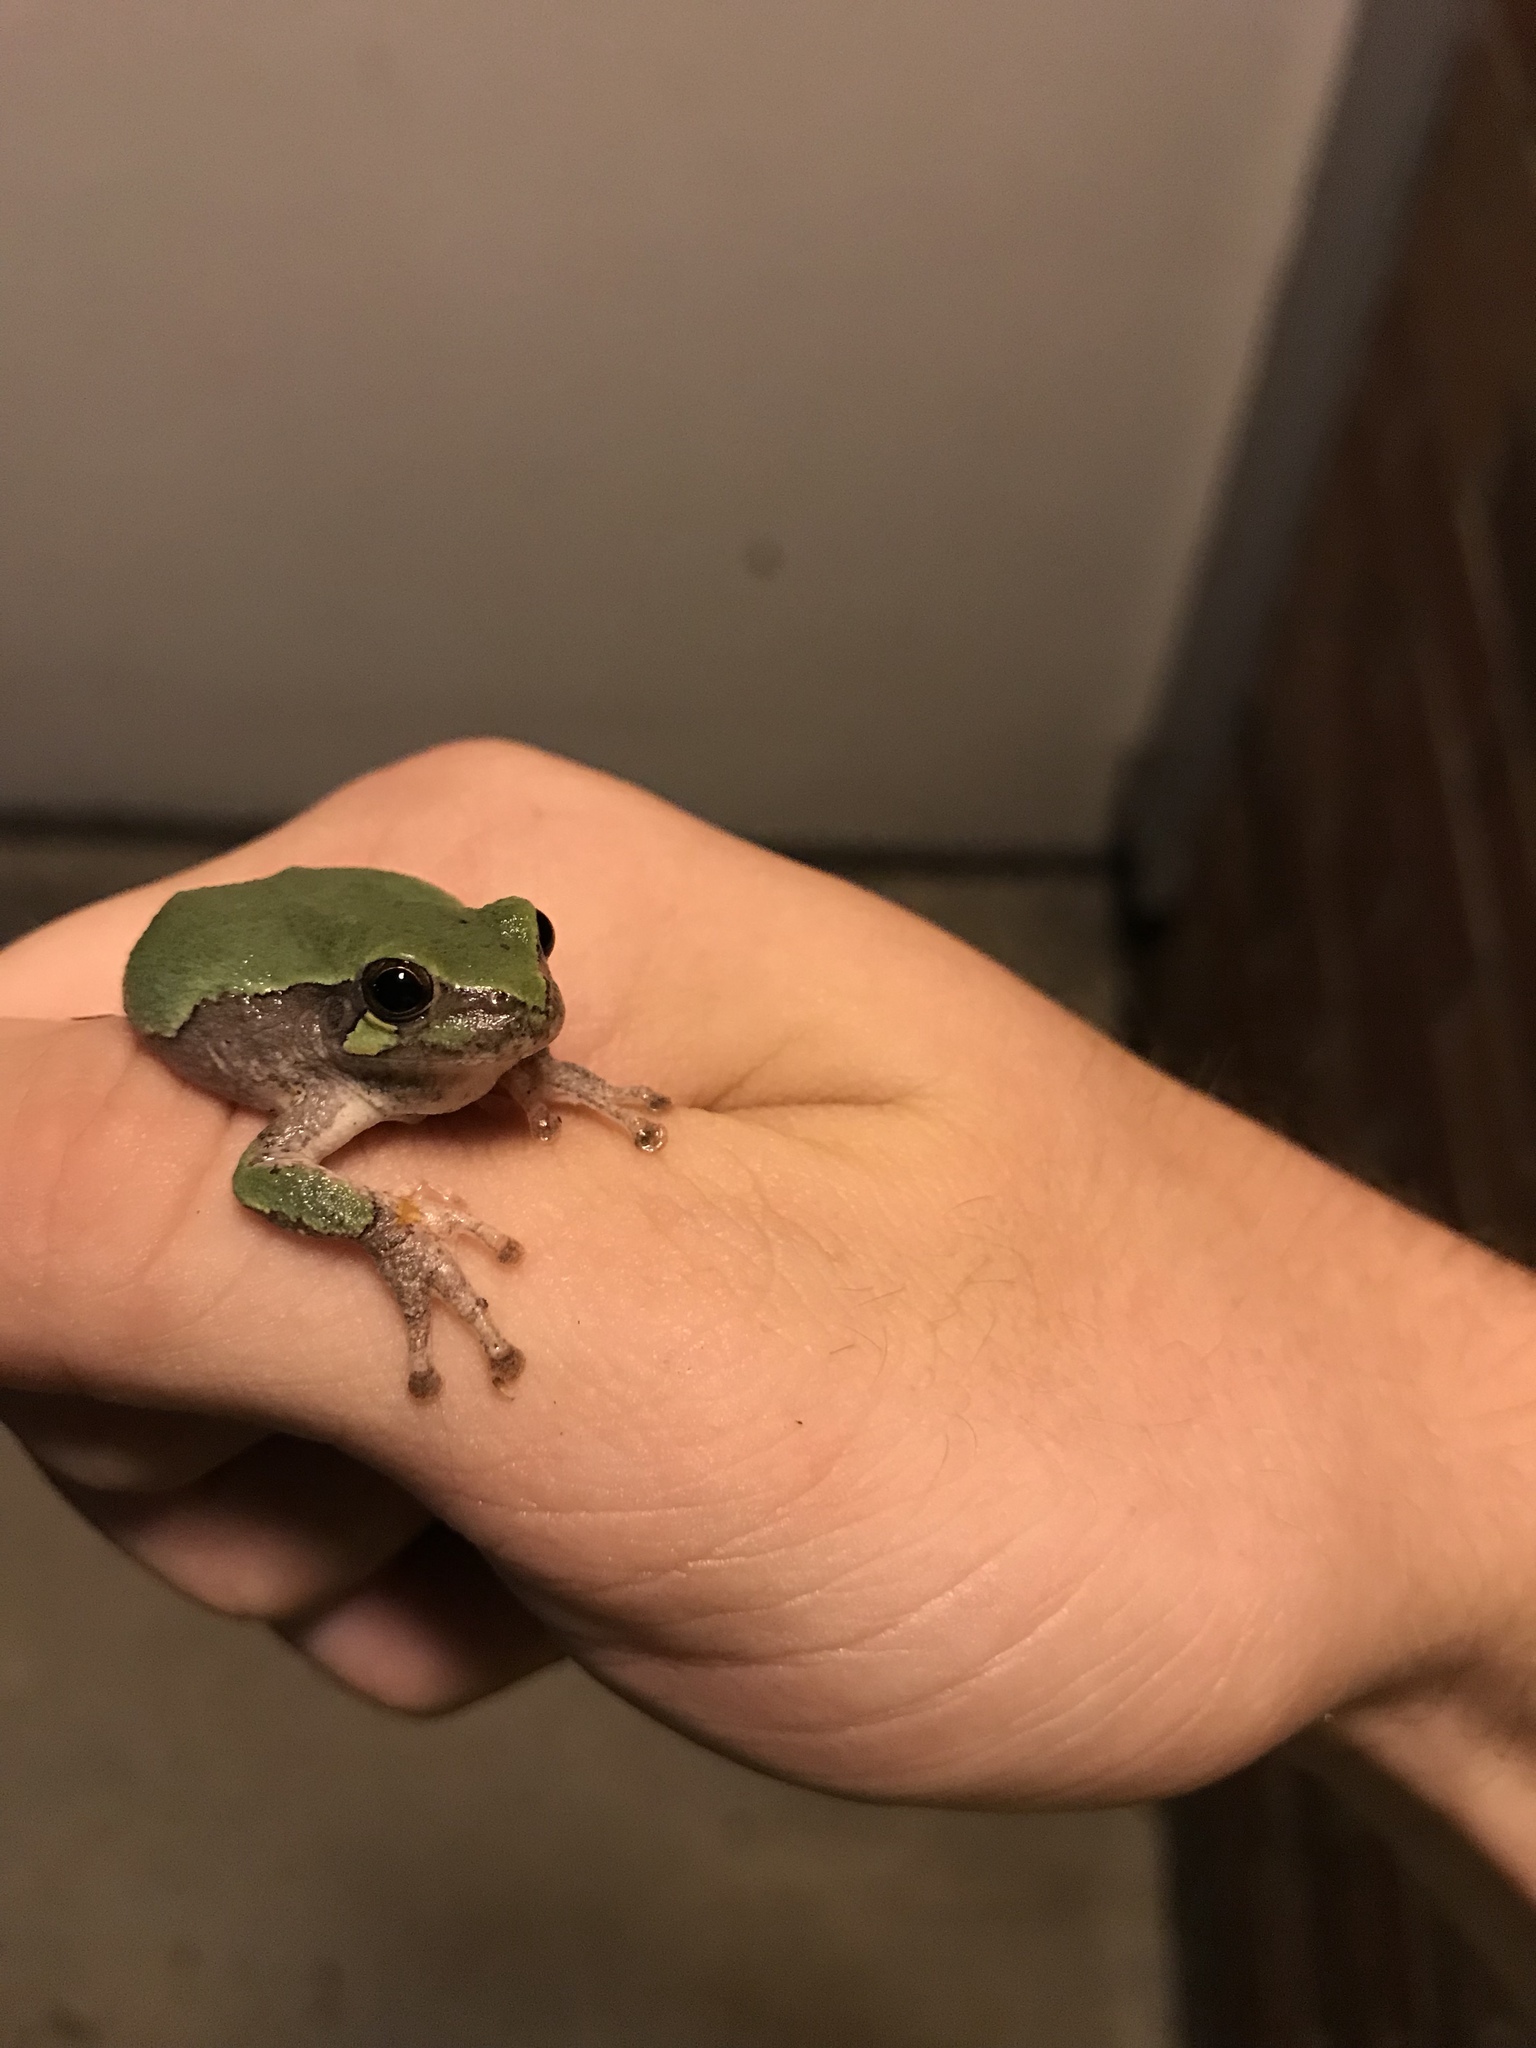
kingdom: Animalia
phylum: Chordata
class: Amphibia
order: Anura
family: Hylidae
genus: Hyla
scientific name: Hyla
